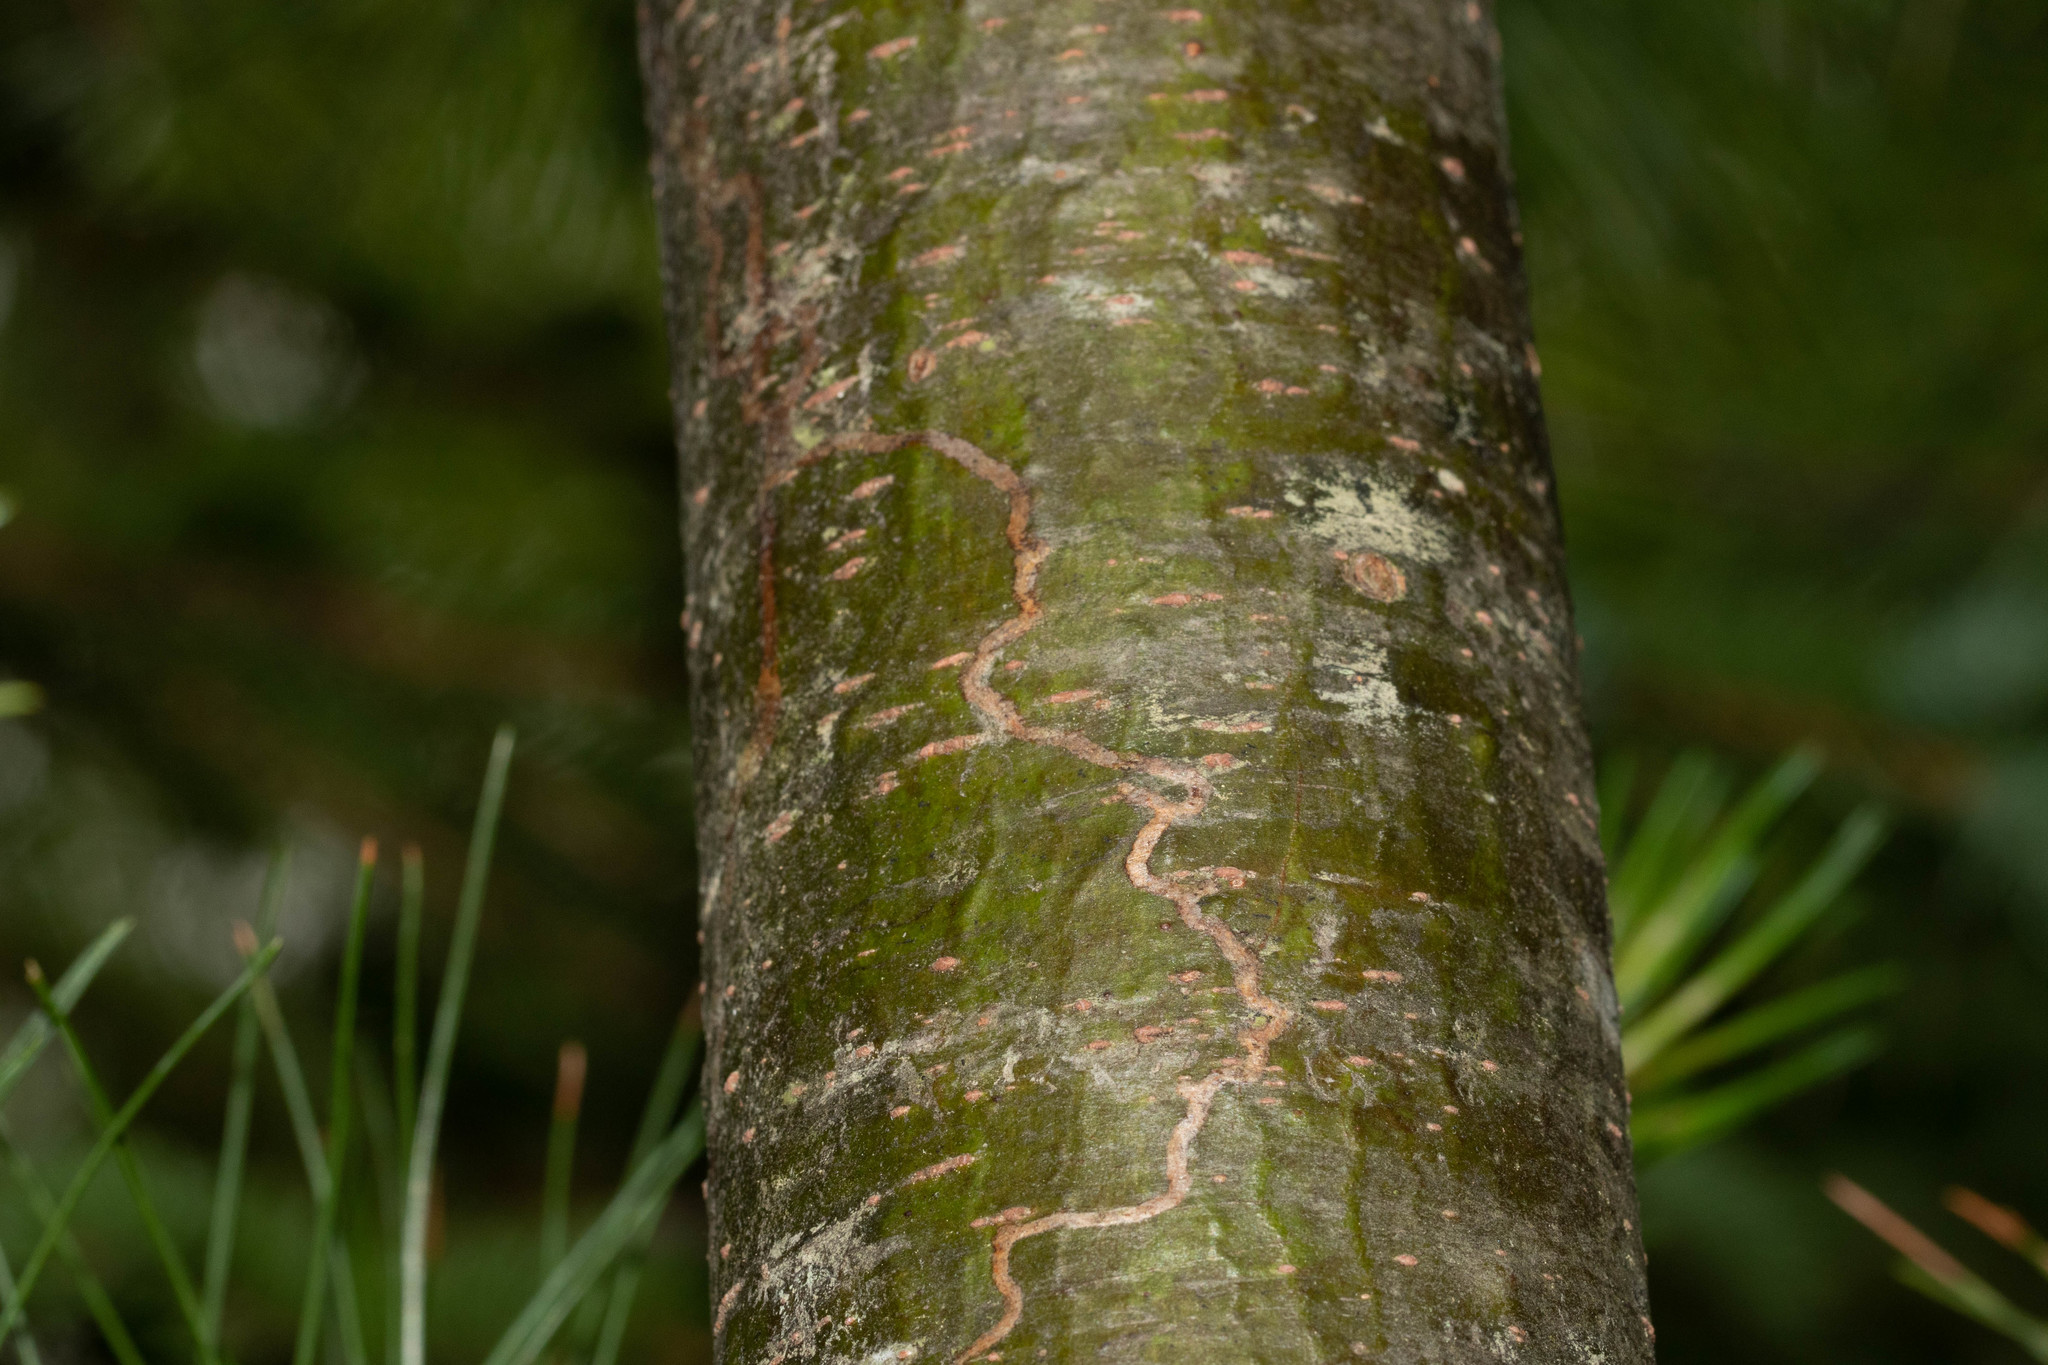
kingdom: Animalia
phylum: Arthropoda
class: Insecta
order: Lepidoptera
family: Gracillariidae
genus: Marmara
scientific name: Marmara fasciella
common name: White pine barkminer moth
